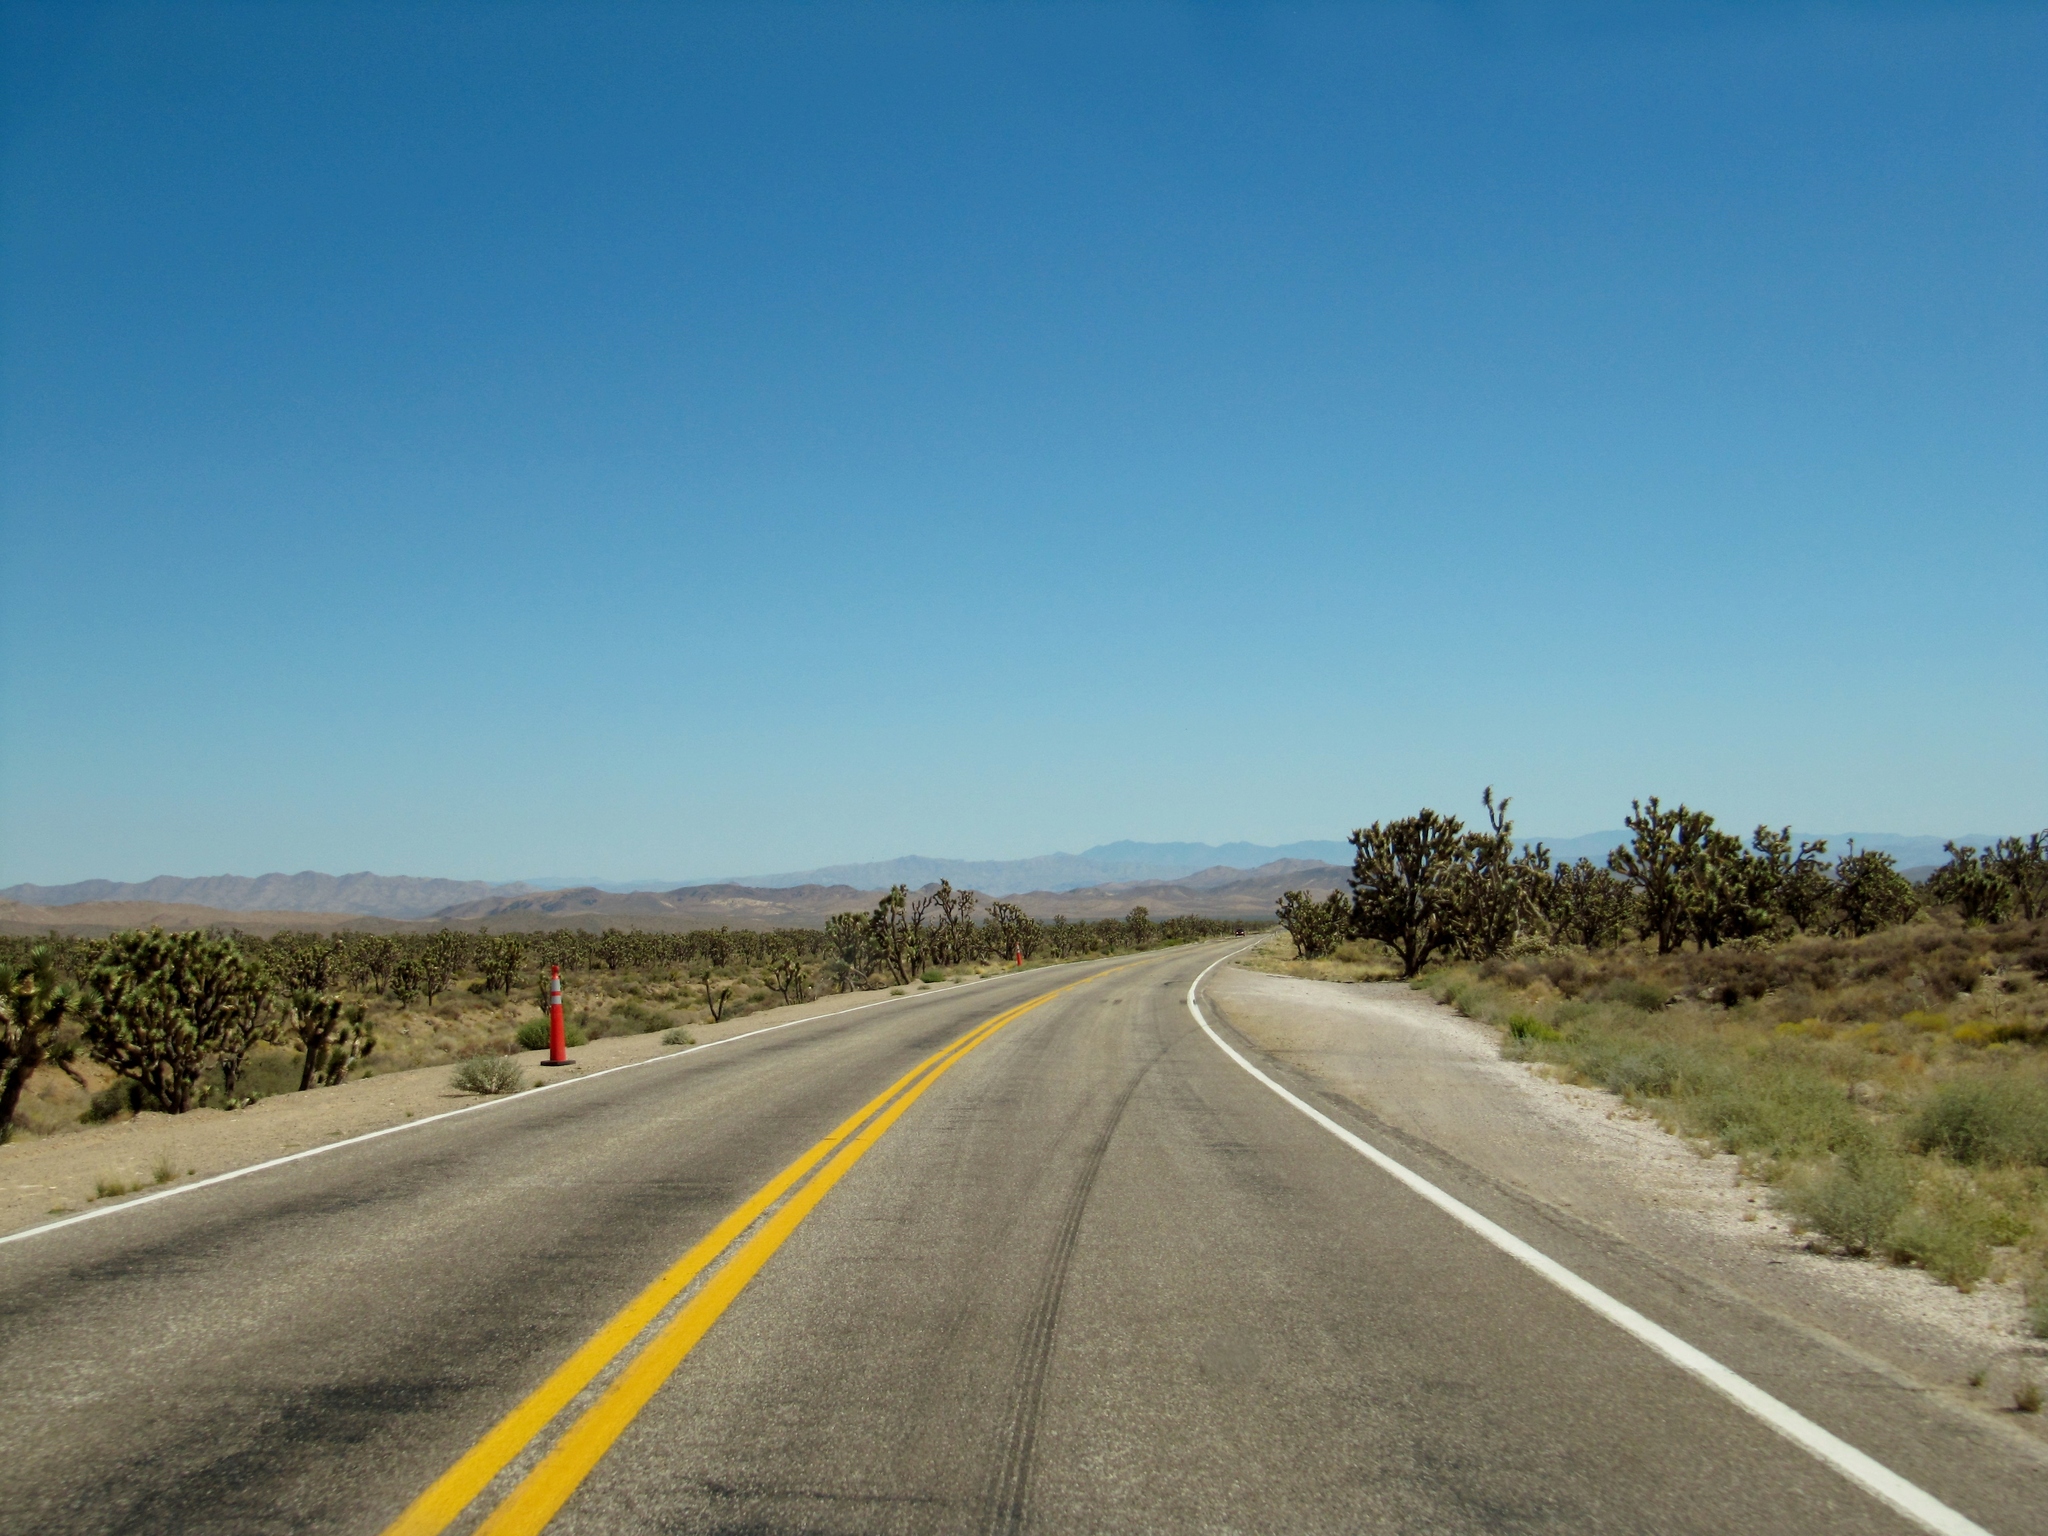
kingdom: Plantae
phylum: Tracheophyta
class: Liliopsida
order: Asparagales
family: Asparagaceae
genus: Yucca
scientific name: Yucca brevifolia
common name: Joshua tree
